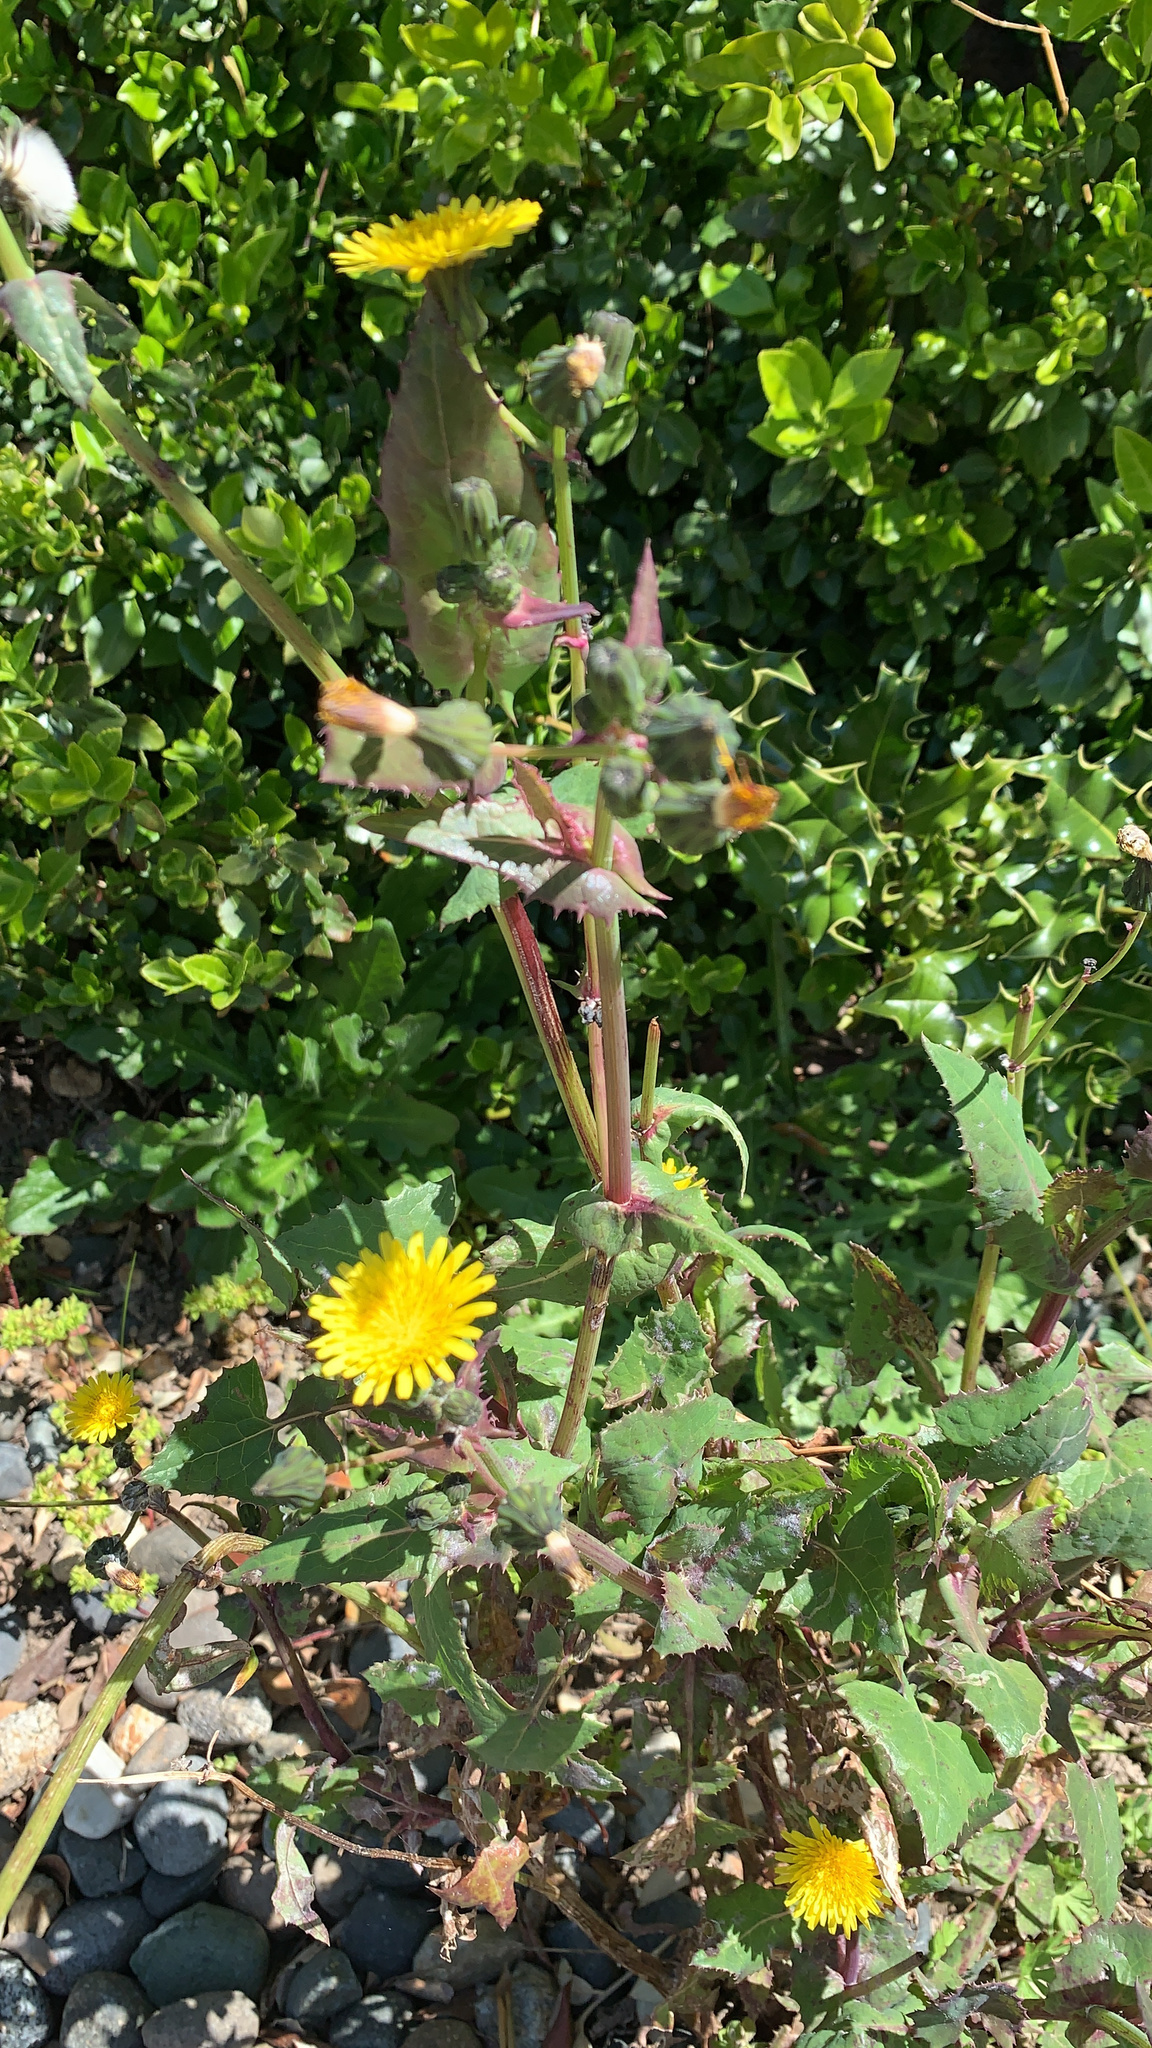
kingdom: Plantae
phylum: Tracheophyta
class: Magnoliopsida
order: Asterales
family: Asteraceae
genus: Sonchus
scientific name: Sonchus oleraceus
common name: Common sowthistle
